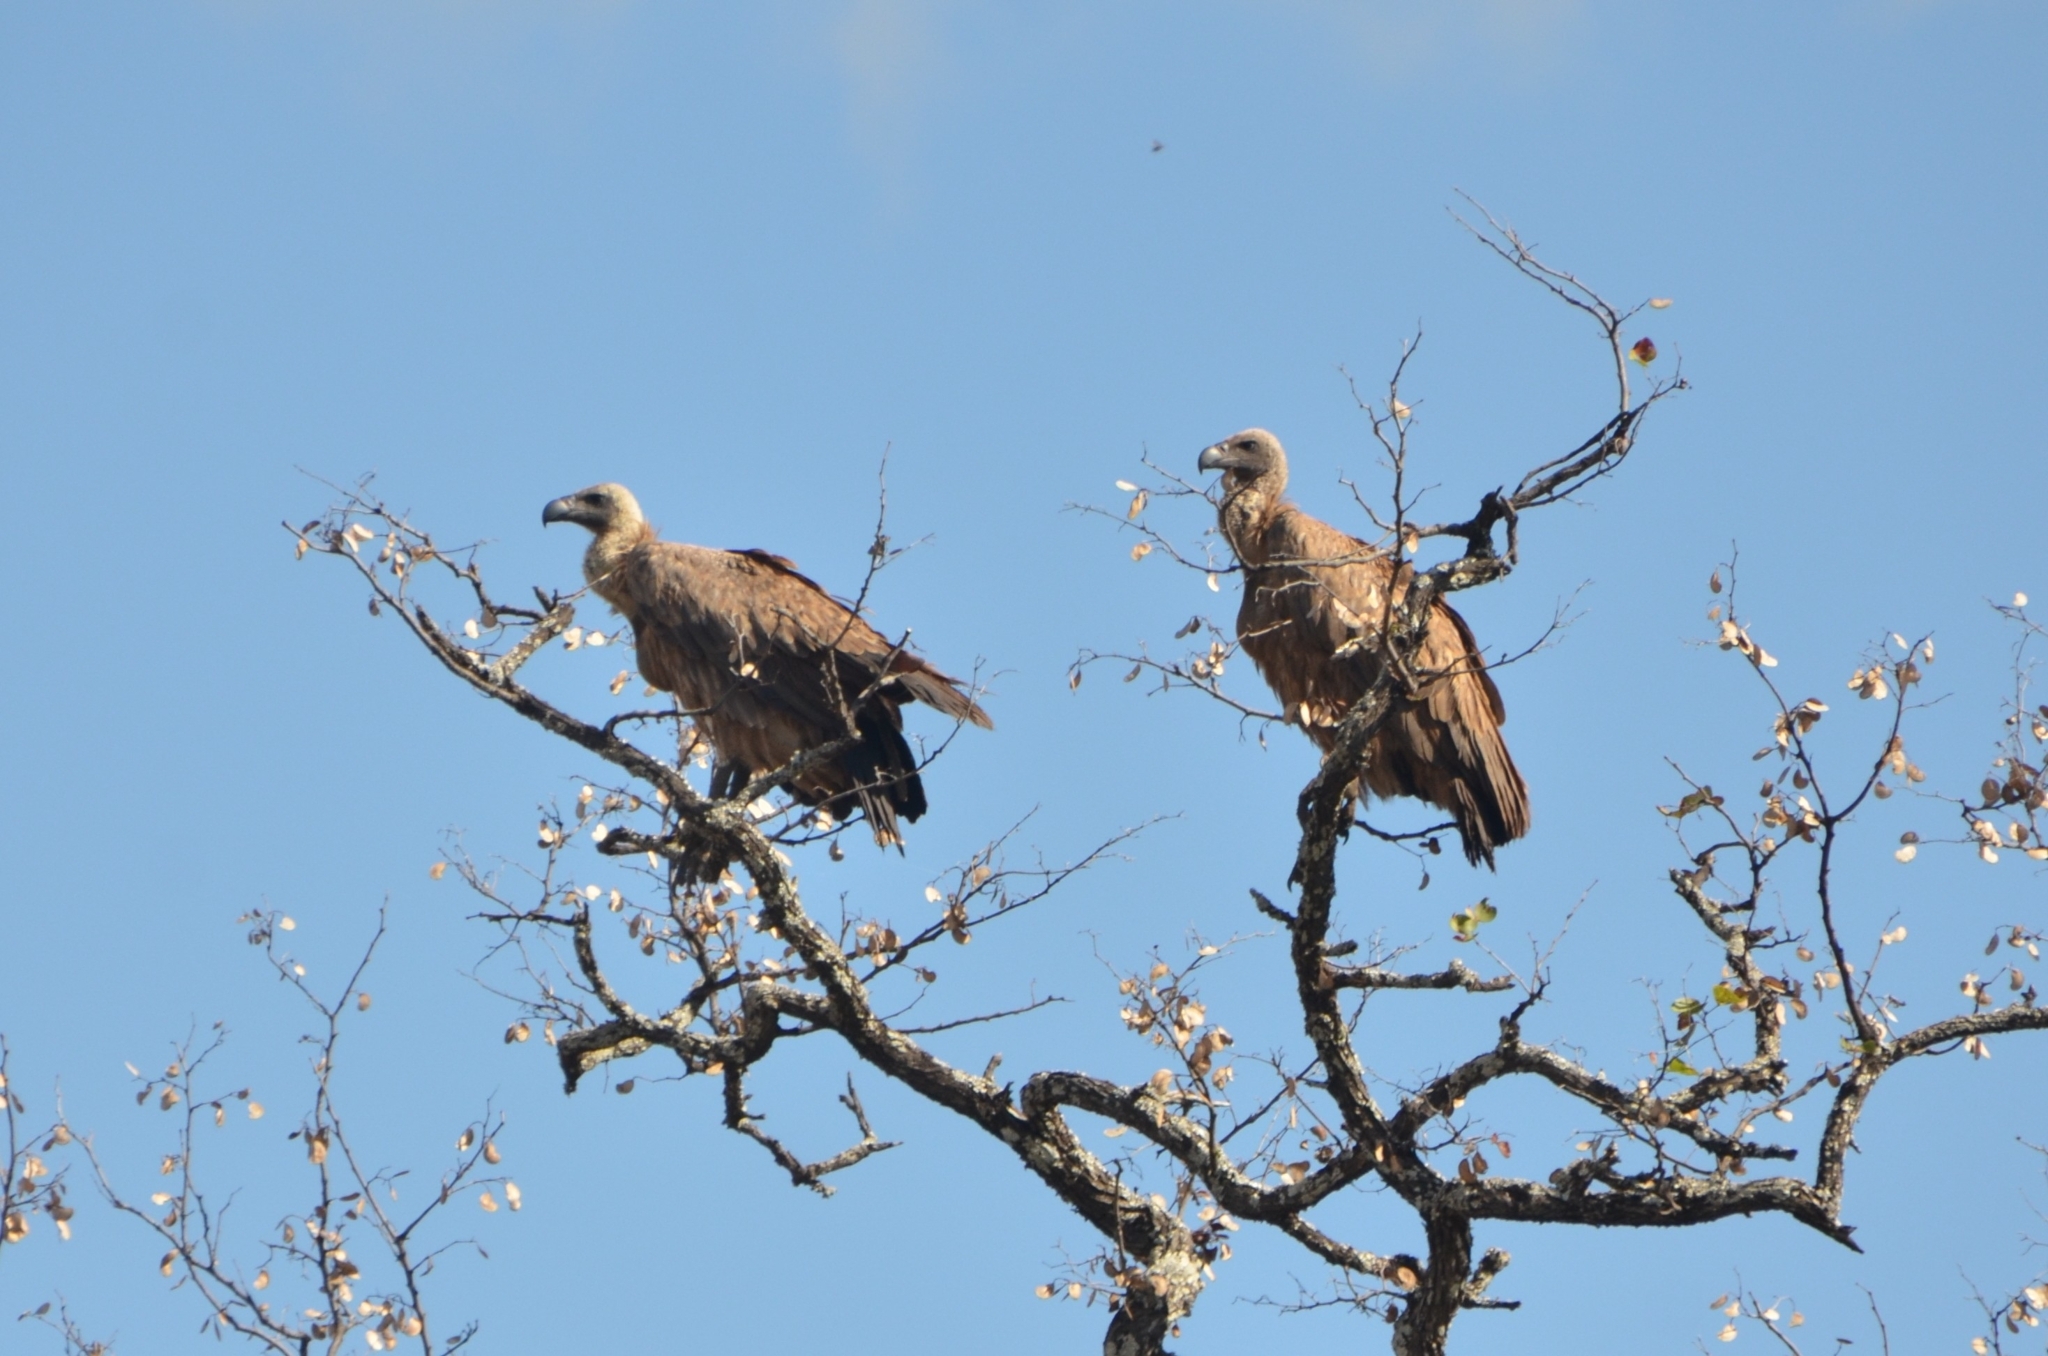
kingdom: Animalia
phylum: Chordata
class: Aves
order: Accipitriformes
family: Accipitridae
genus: Gyps
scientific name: Gyps africanus
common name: White-backed vulture
